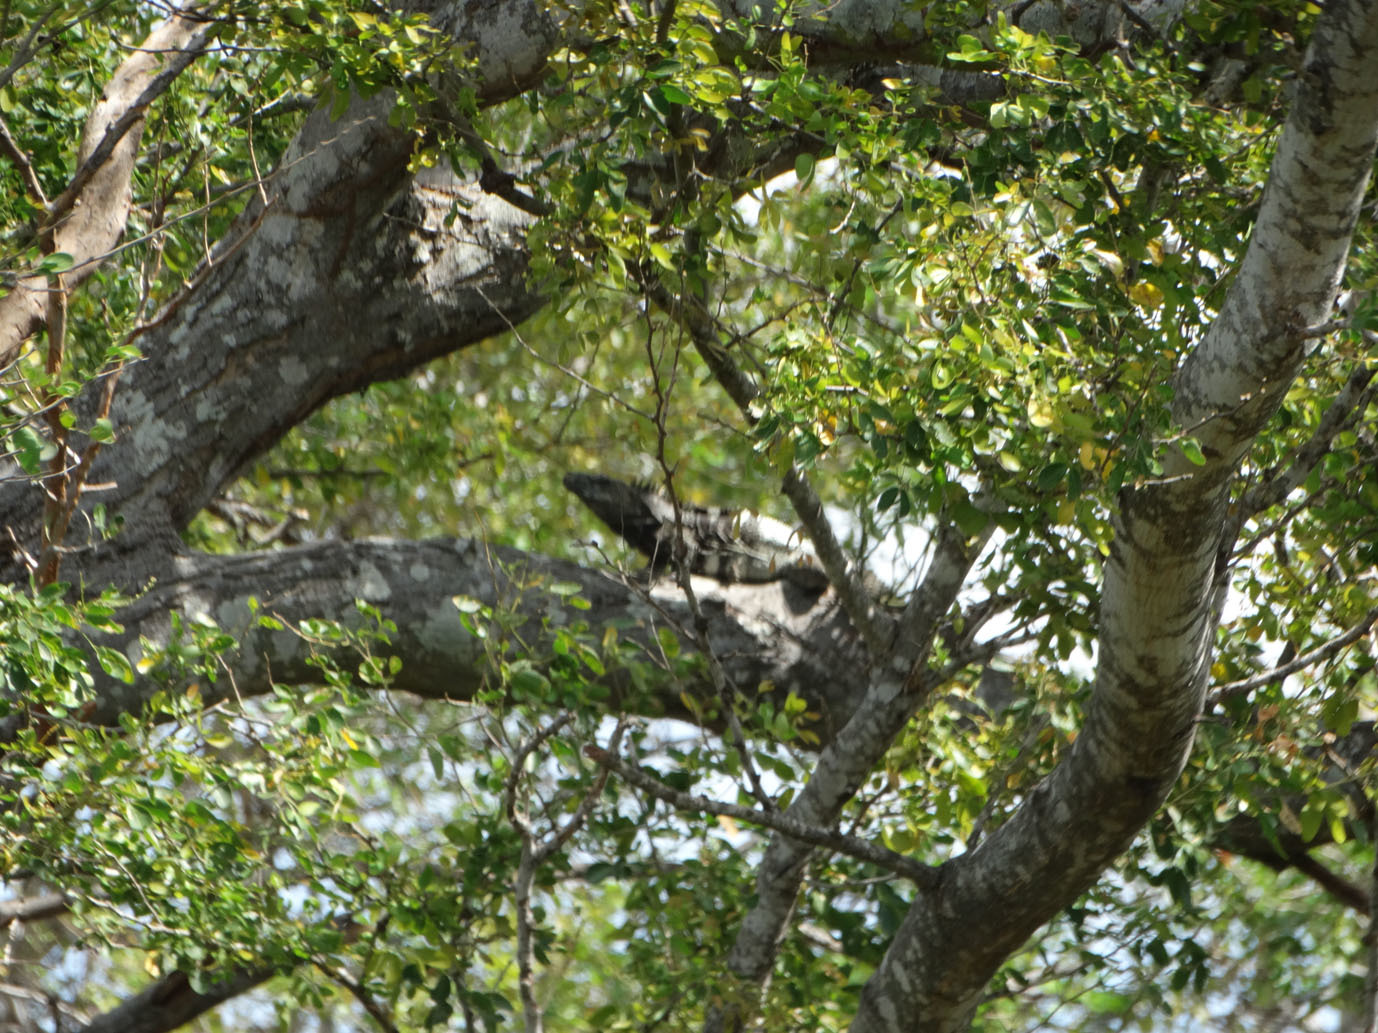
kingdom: Animalia
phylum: Chordata
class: Squamata
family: Iguanidae
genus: Ctenosaura
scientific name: Ctenosaura pectinata
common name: Guerreran spiny-tailed iguana
